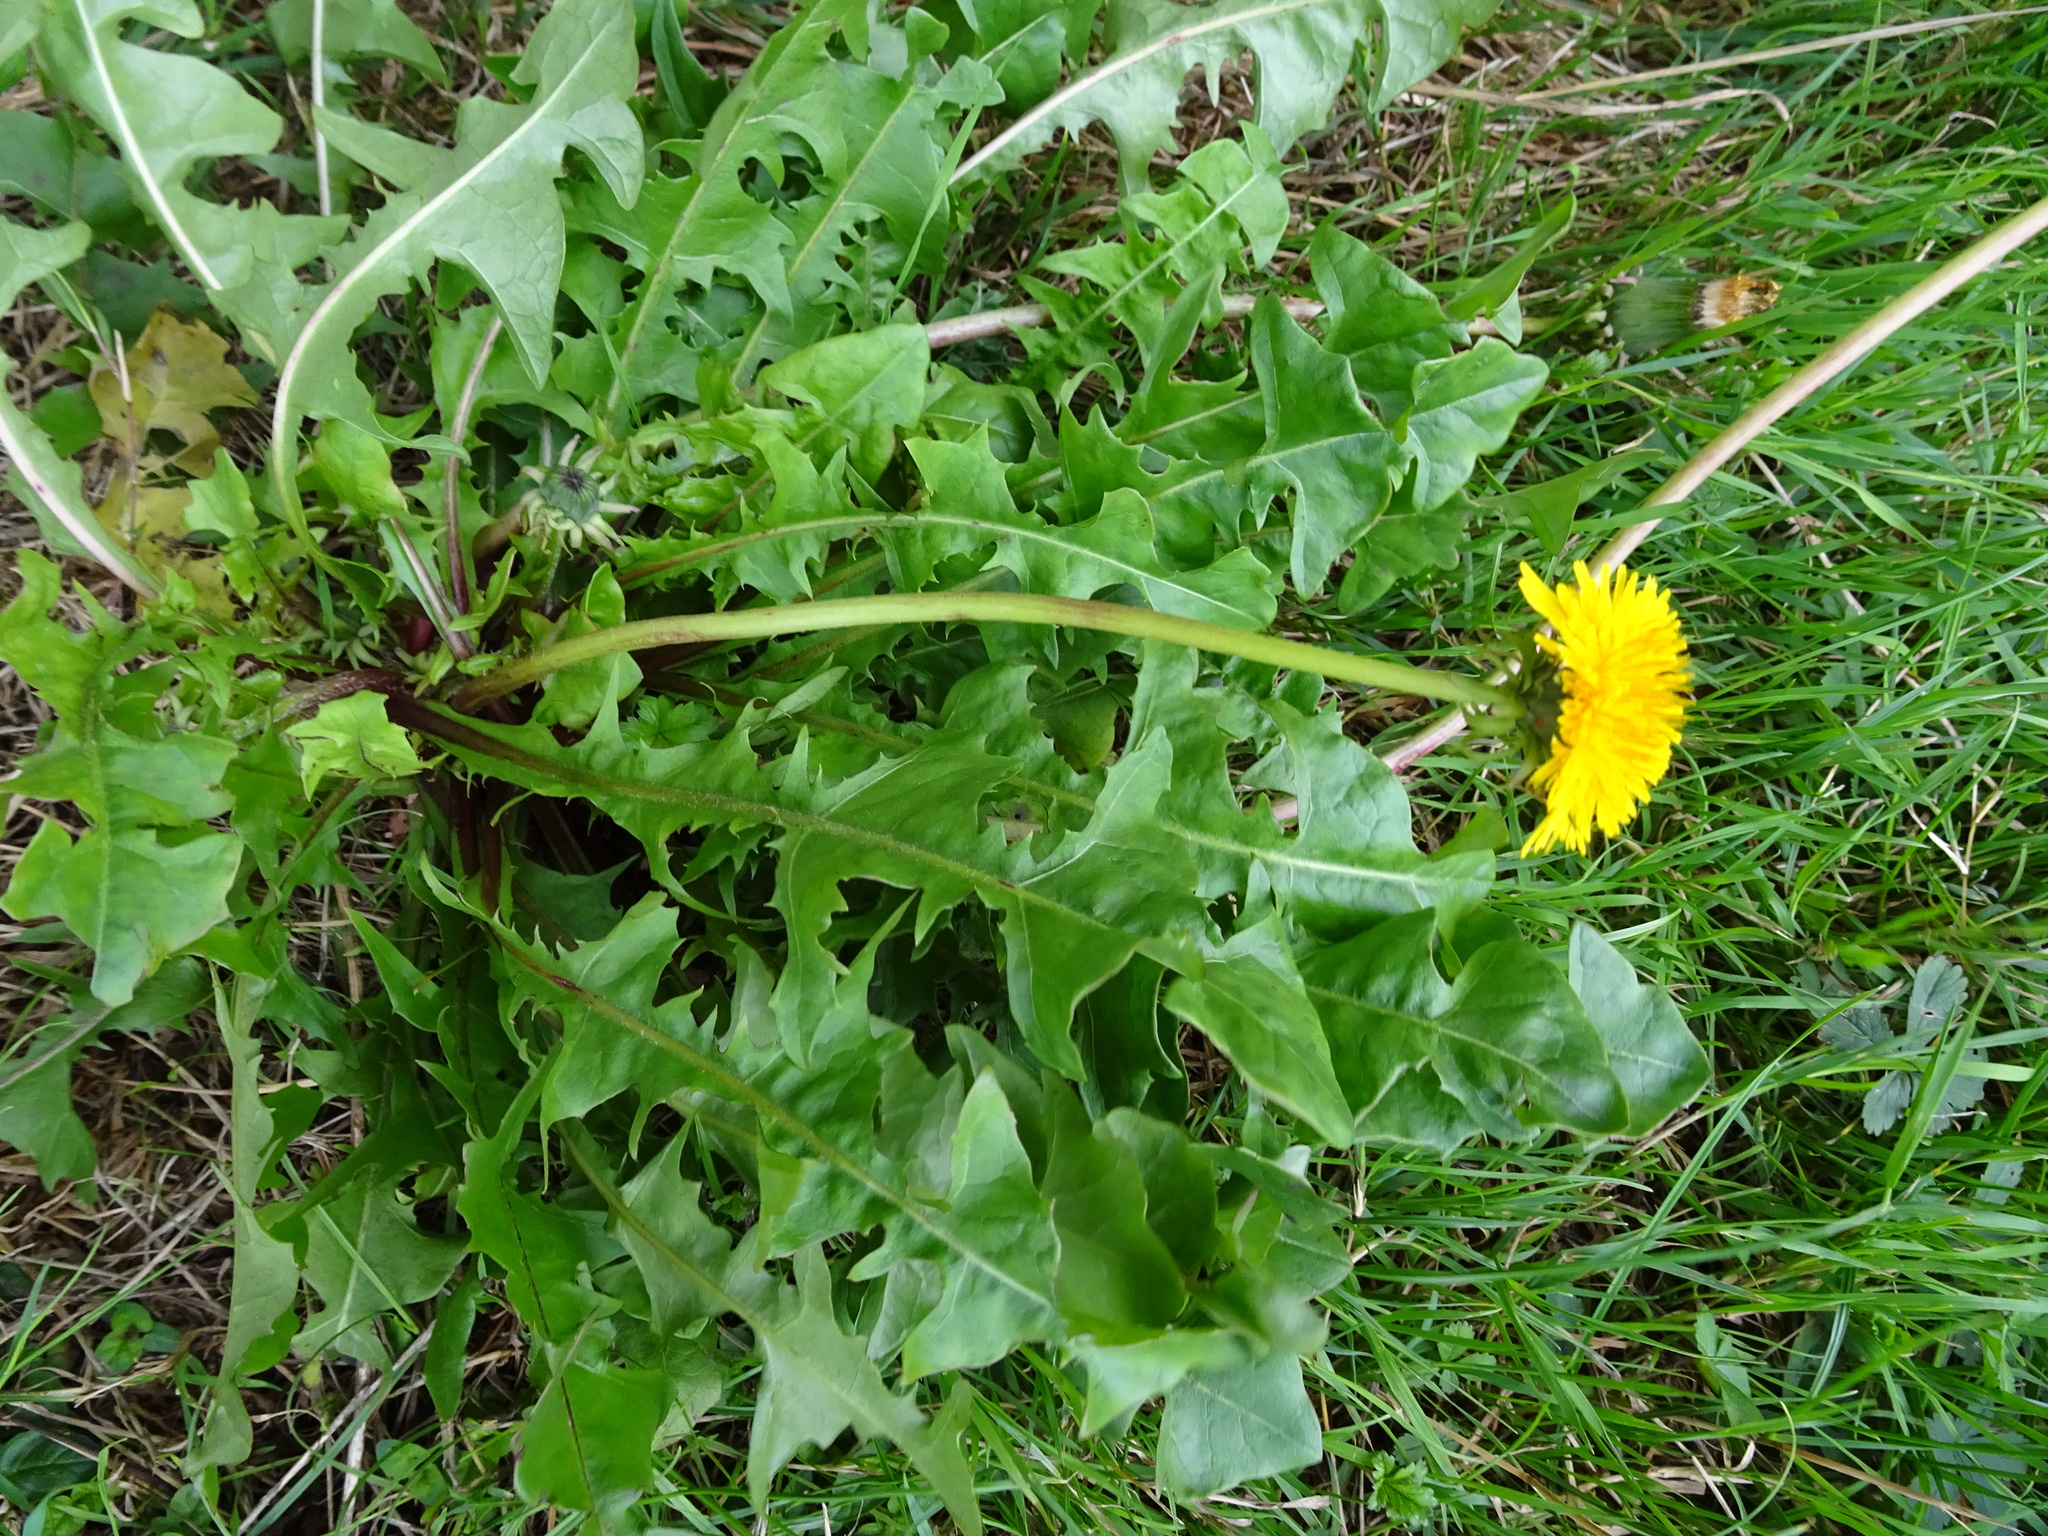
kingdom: Plantae
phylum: Tracheophyta
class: Magnoliopsida
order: Asterales
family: Asteraceae
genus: Taraxacum
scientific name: Taraxacum officinale
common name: Common dandelion
